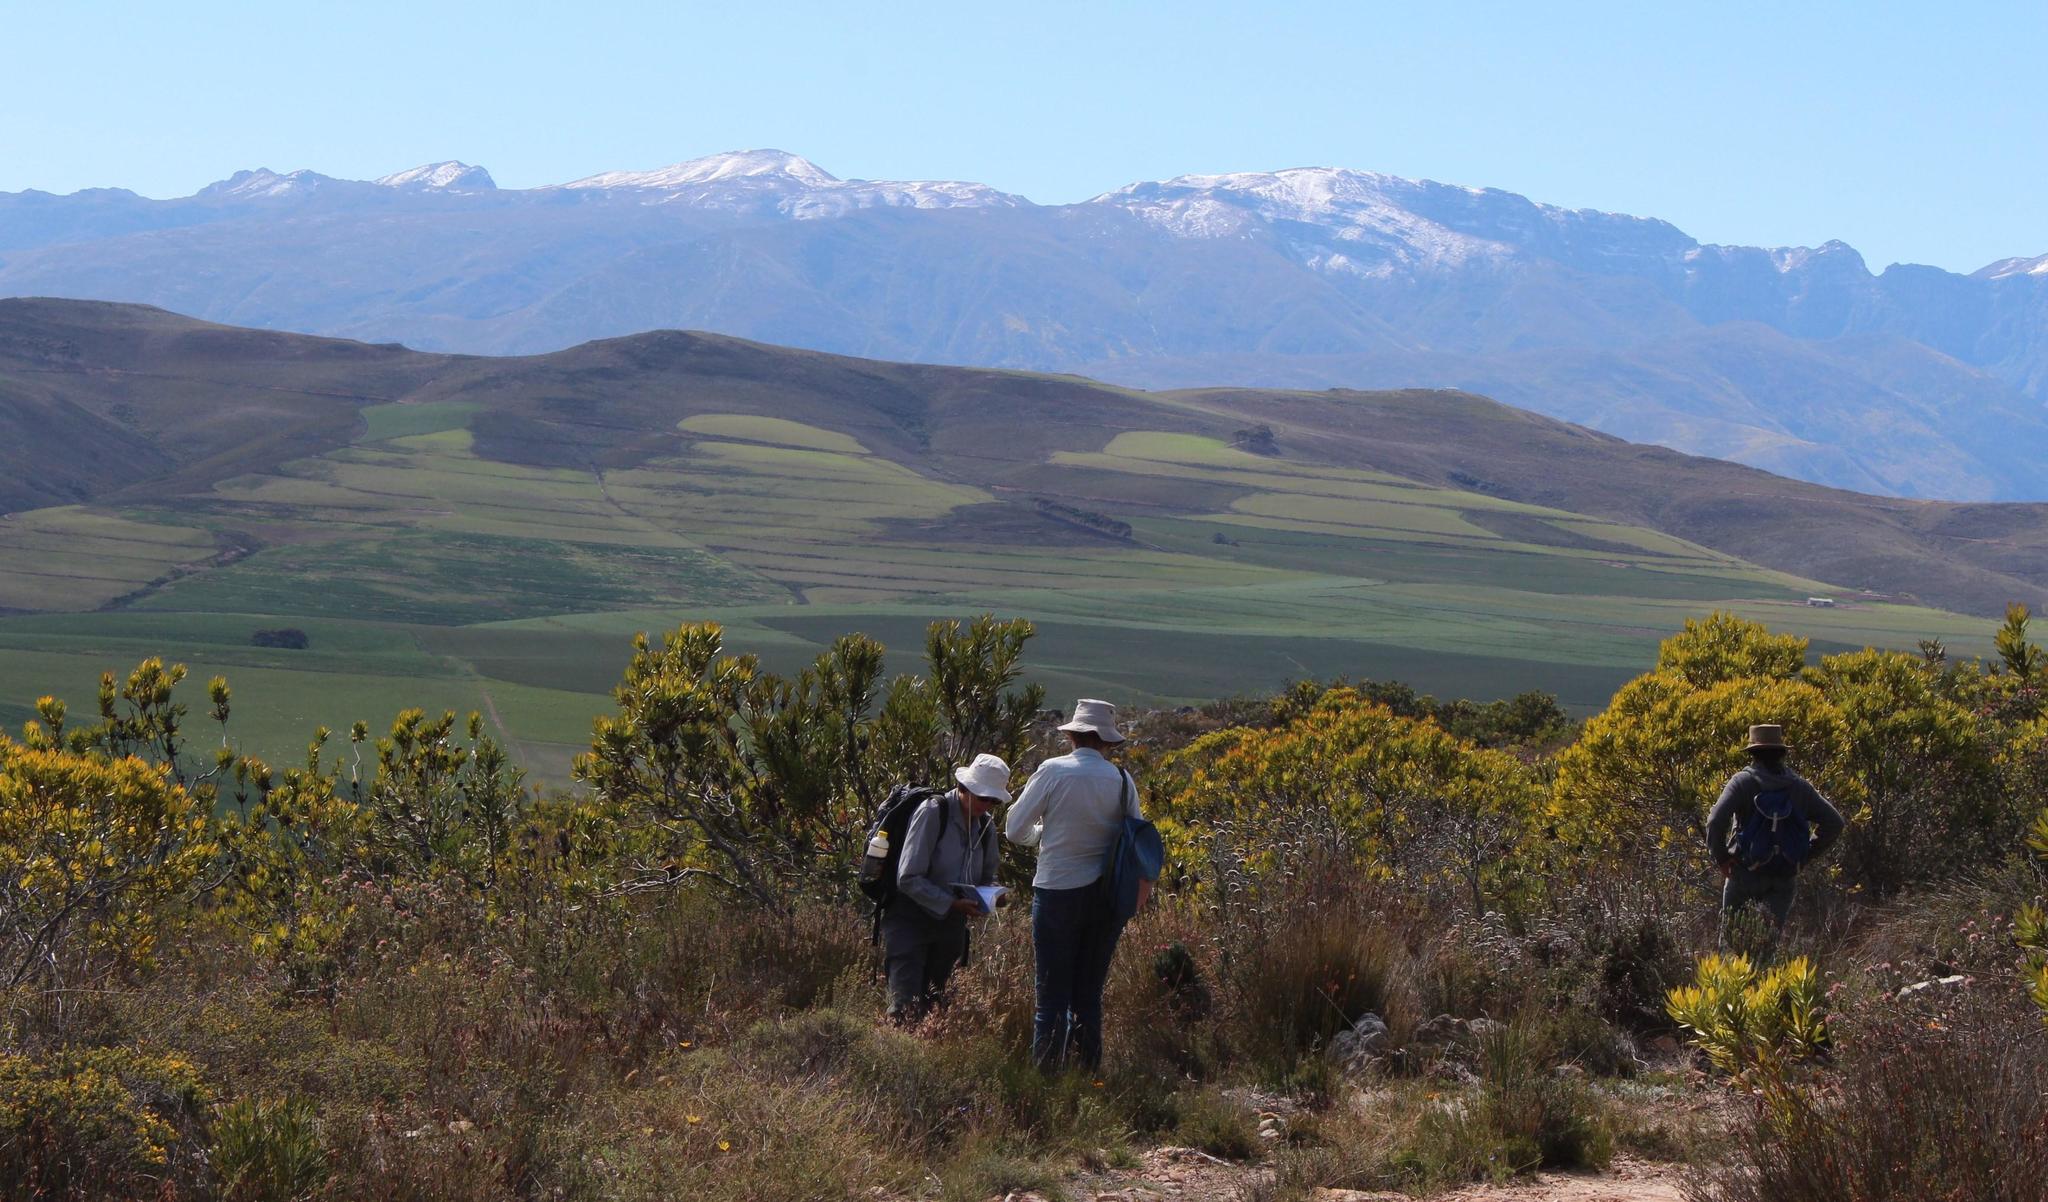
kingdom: Plantae
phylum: Tracheophyta
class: Magnoliopsida
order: Proteales
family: Proteaceae
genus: Leucadendron
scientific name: Leucadendron laureolum
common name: Golden sunshinebush
